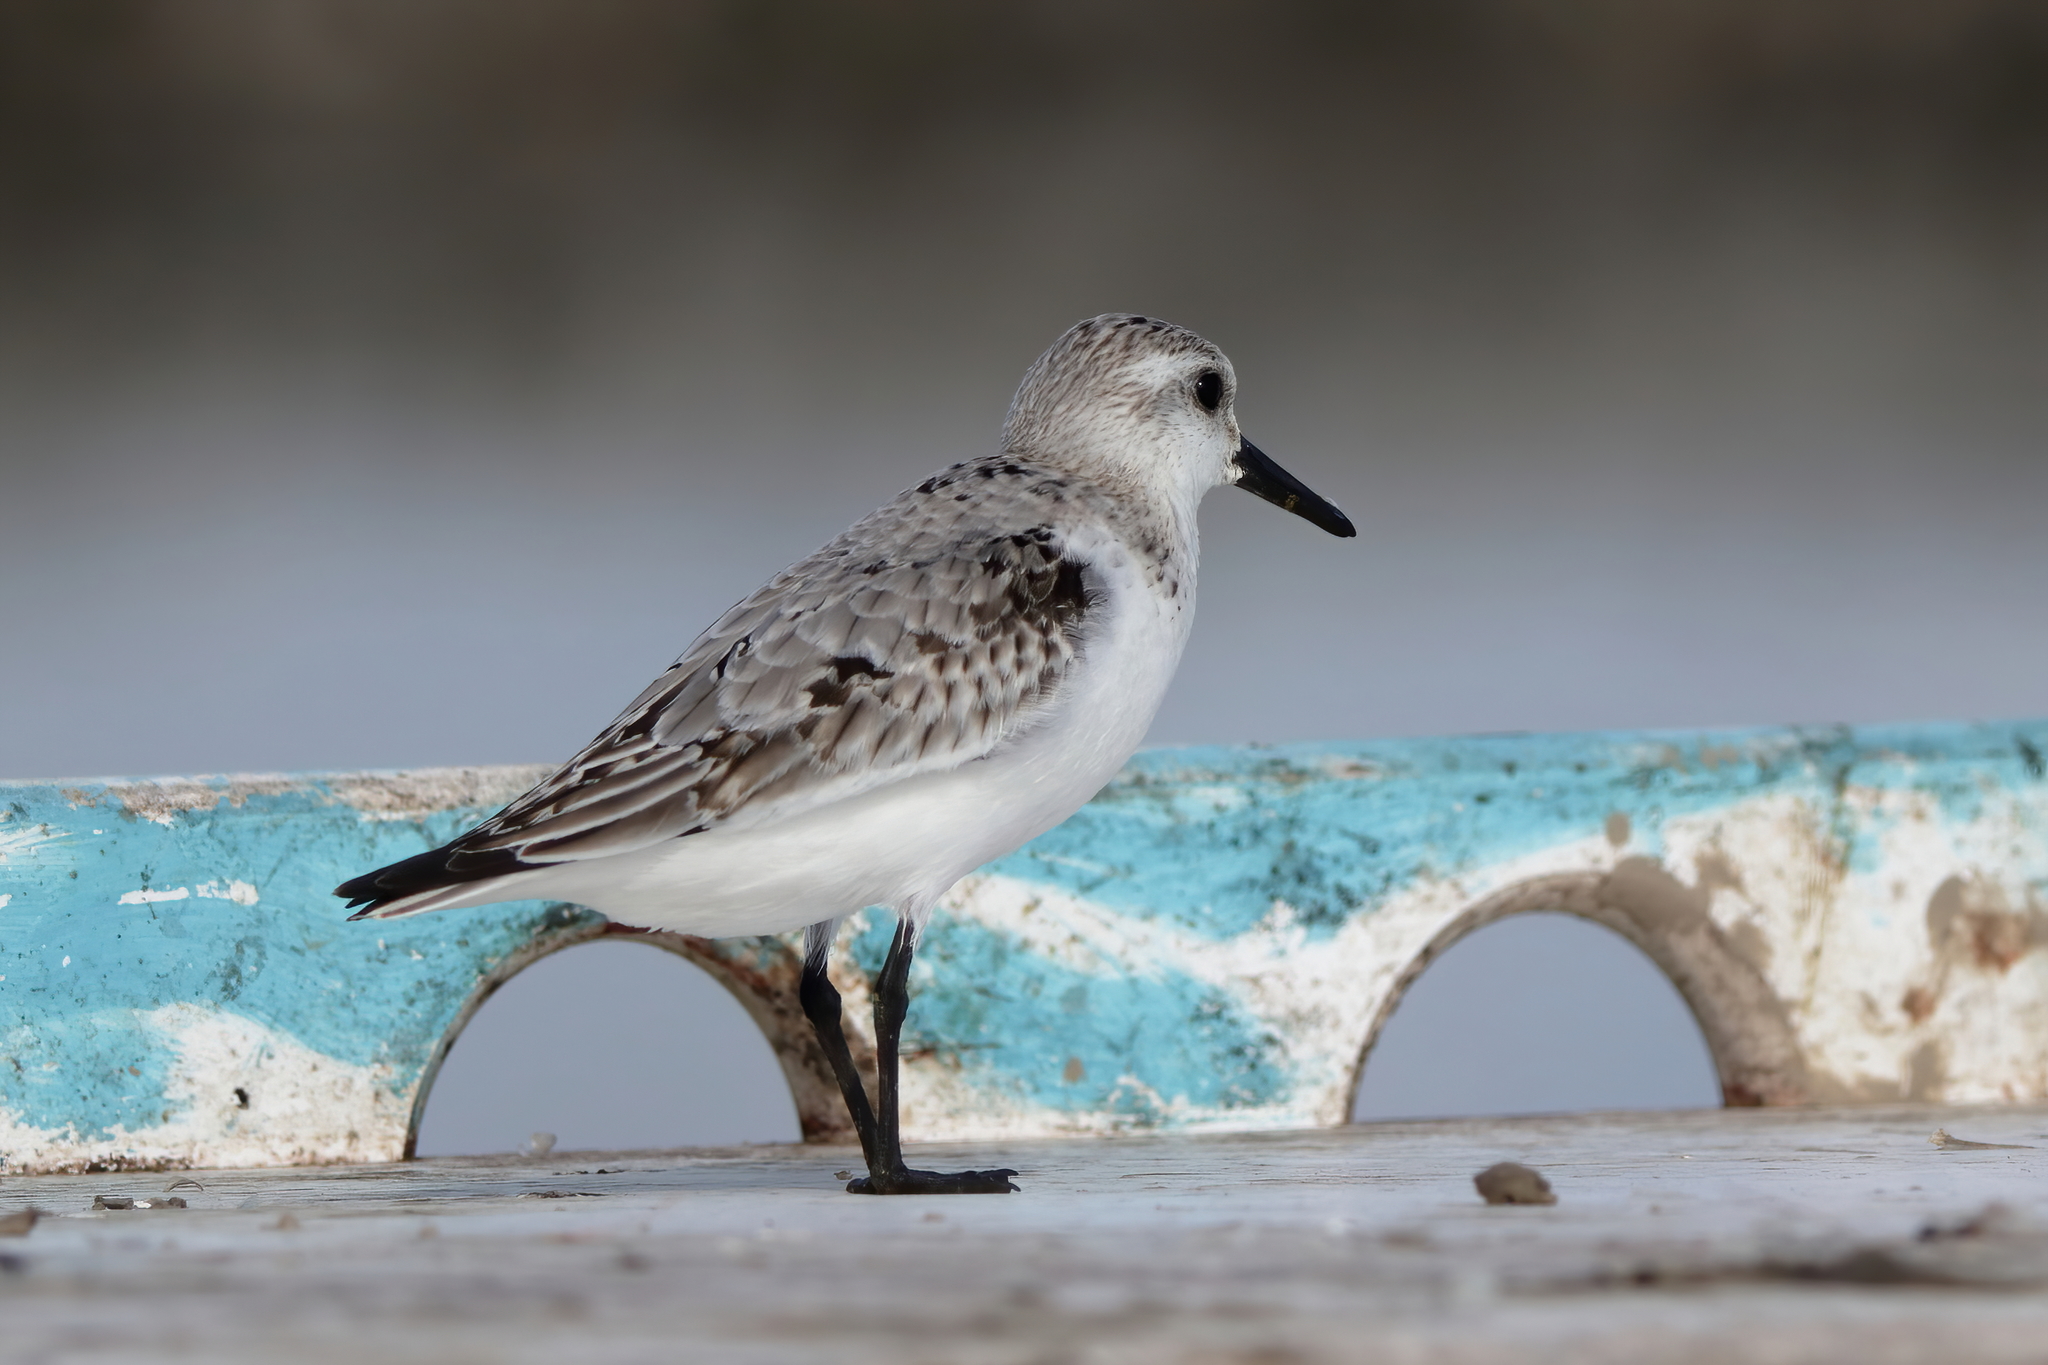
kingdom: Animalia
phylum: Chordata
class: Aves
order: Charadriiformes
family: Scolopacidae
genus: Calidris
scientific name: Calidris alba
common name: Sanderling
